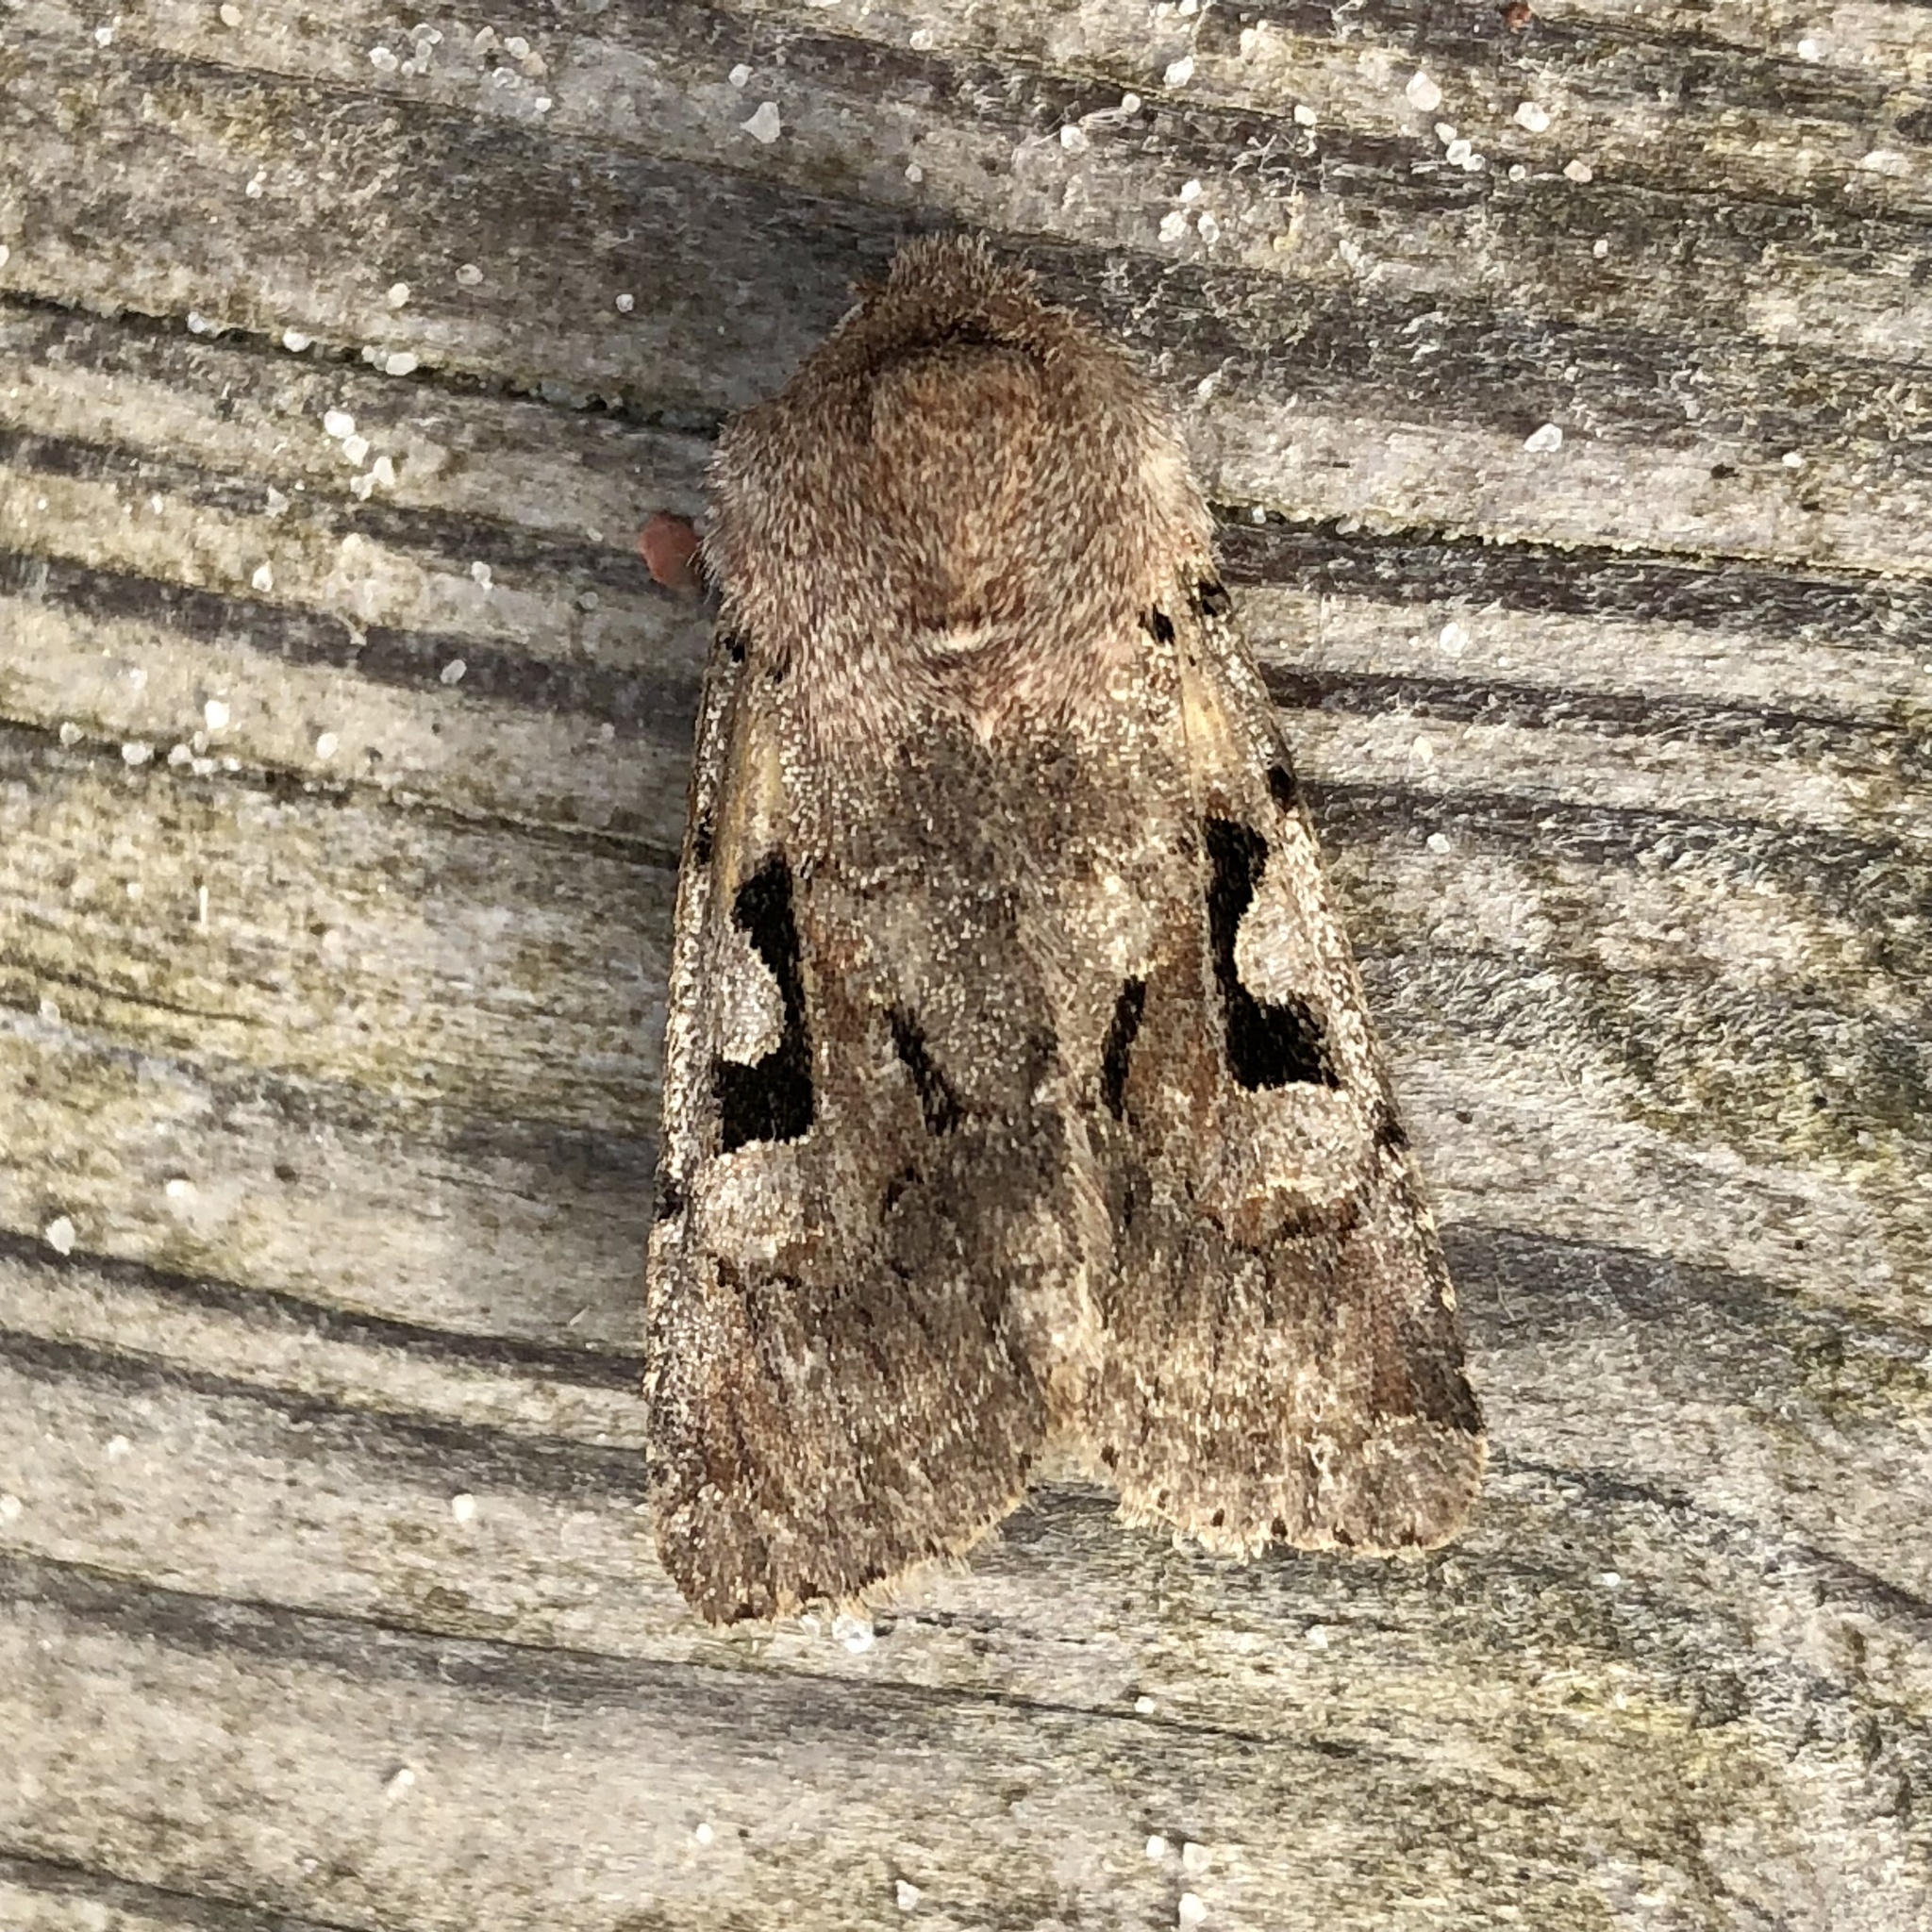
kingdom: Animalia
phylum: Arthropoda
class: Insecta
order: Lepidoptera
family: Noctuidae
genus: Orthosia
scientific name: Orthosia gothica
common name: Hebrew character
